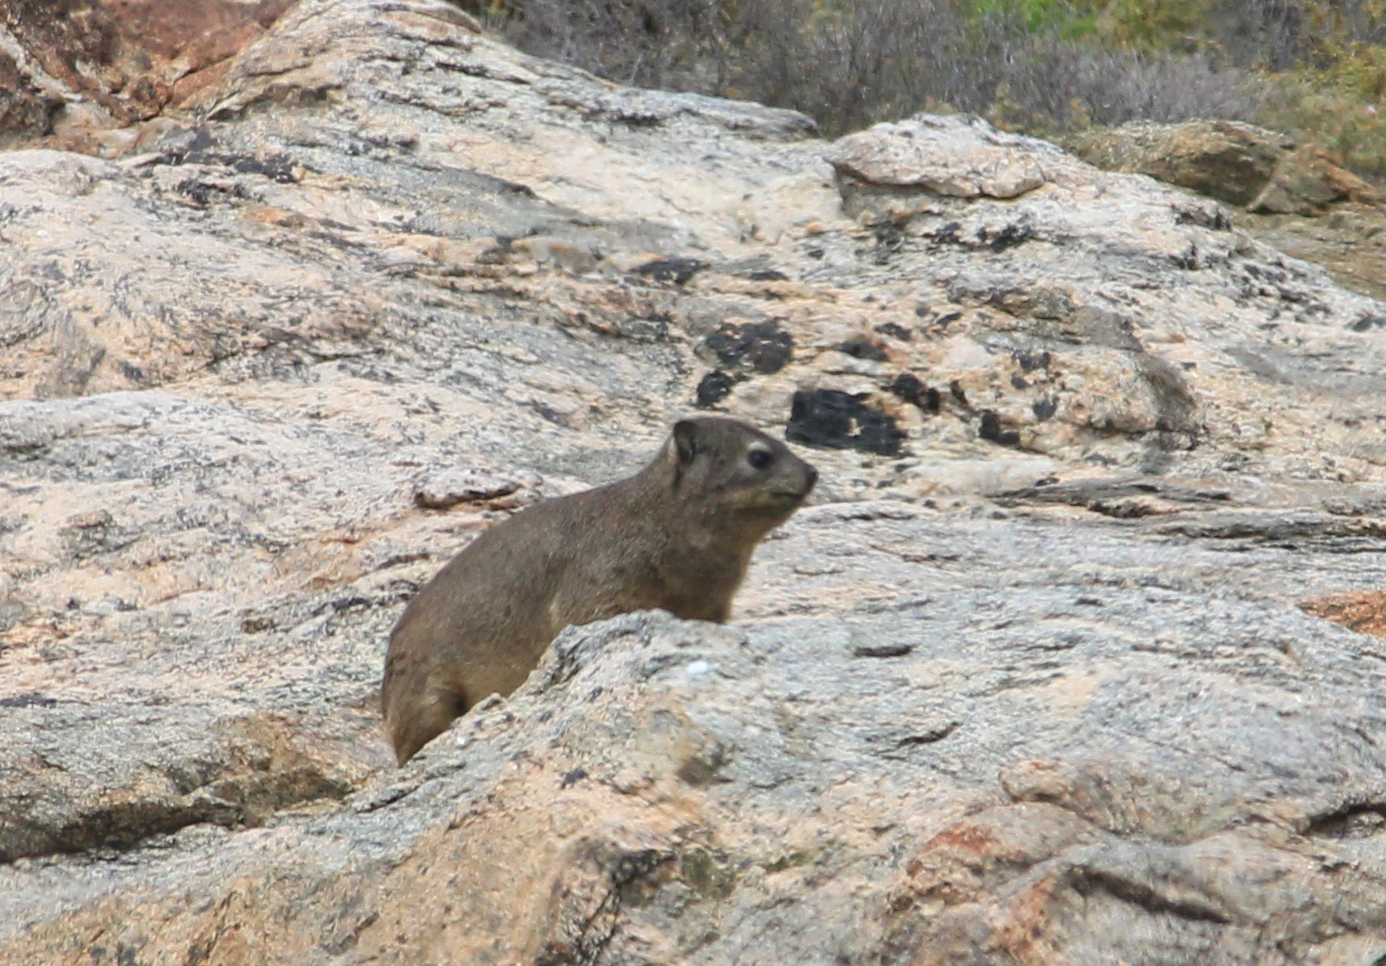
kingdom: Animalia
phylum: Chordata
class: Mammalia
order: Hyracoidea
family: Procaviidae
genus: Procavia
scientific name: Procavia capensis
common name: Rock hyrax
